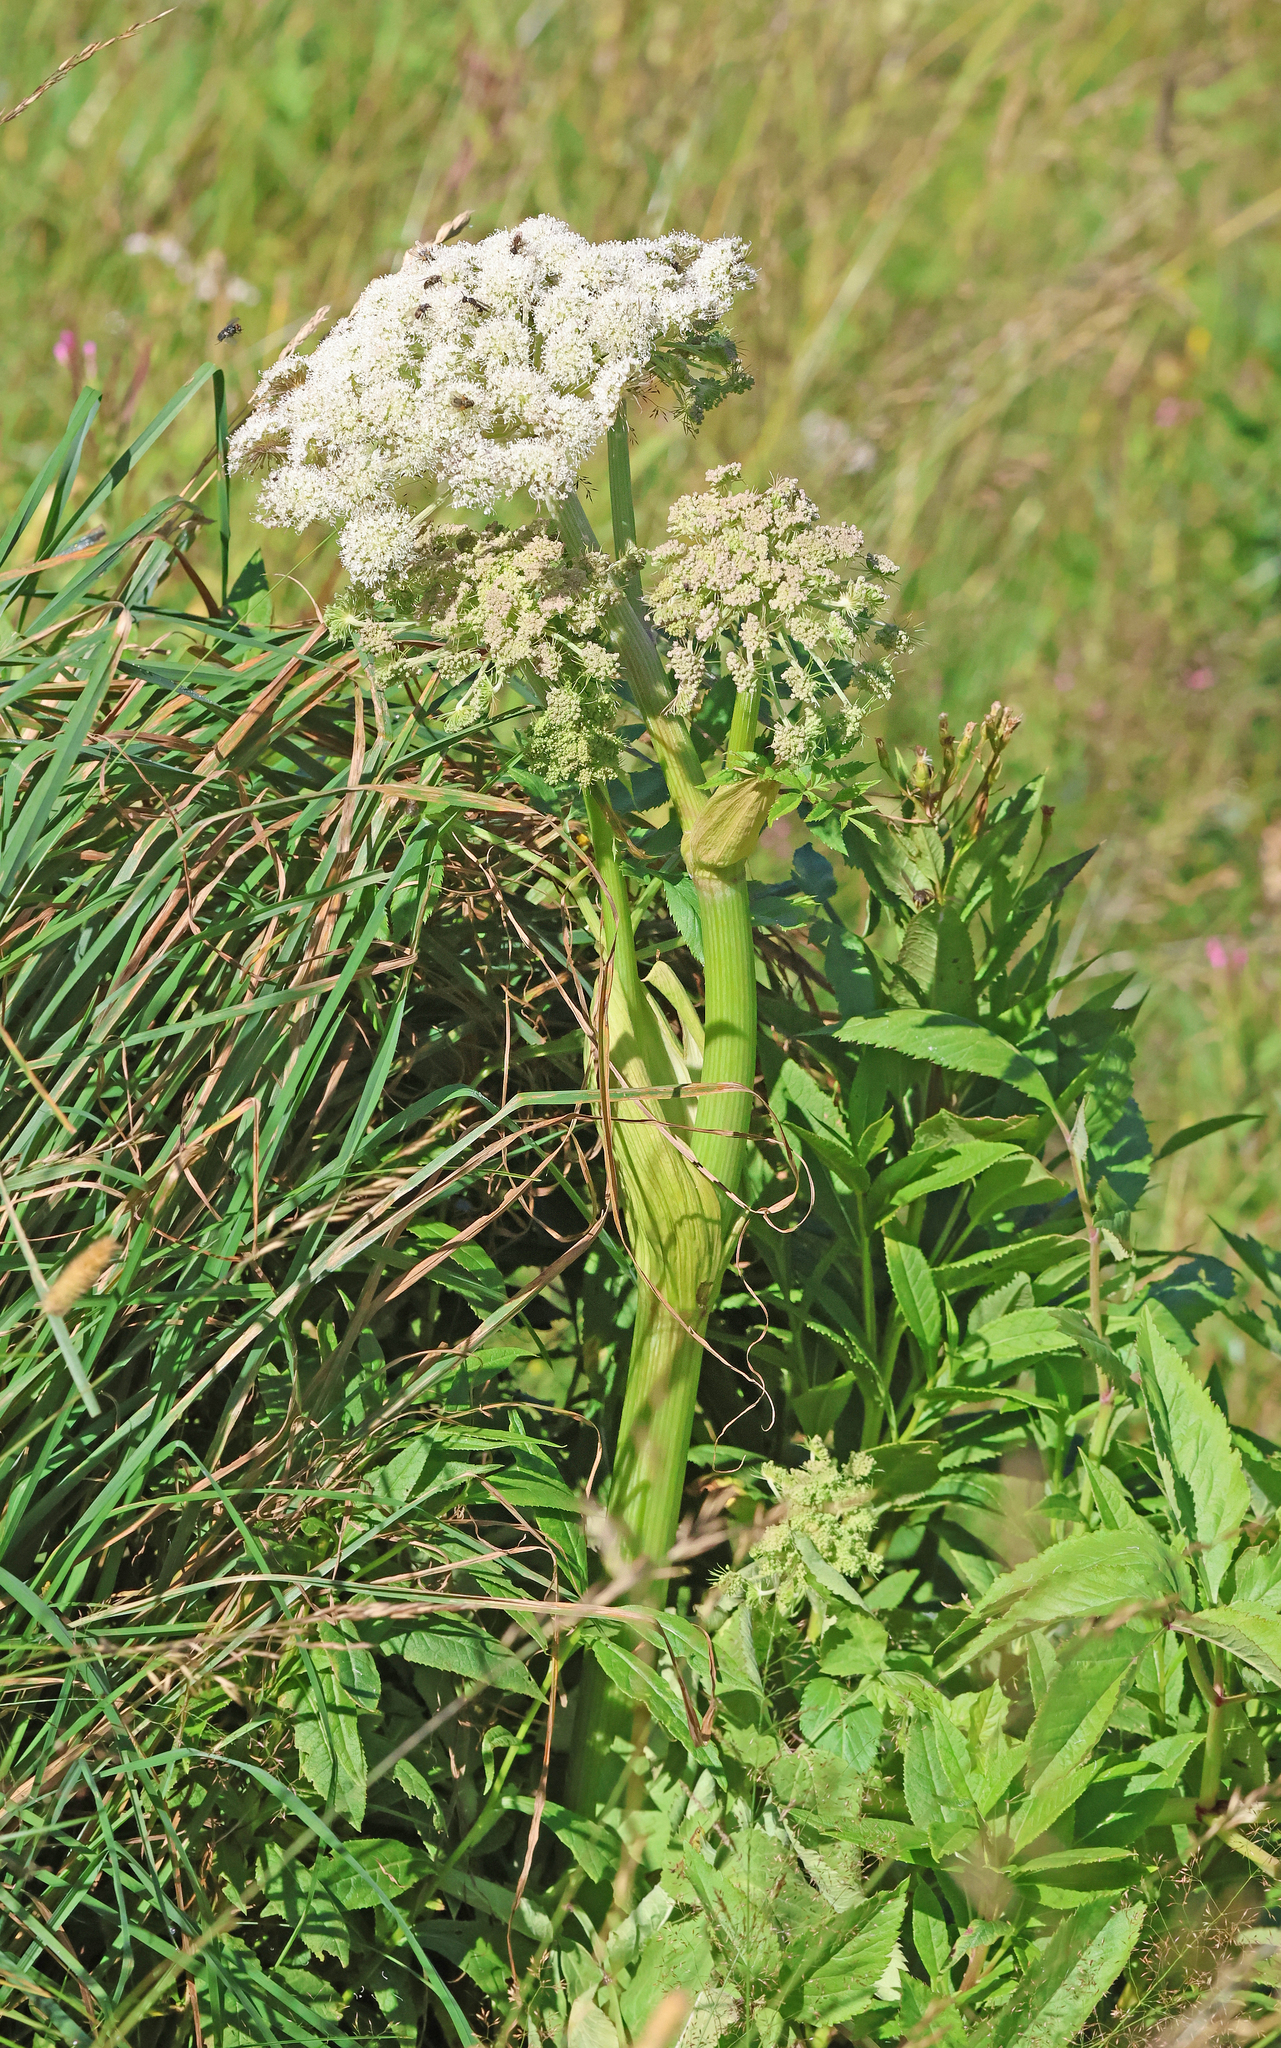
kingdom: Plantae
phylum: Tracheophyta
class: Magnoliopsida
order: Apiales
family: Apiaceae
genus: Angelica
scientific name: Angelica sylvestris
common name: Wild angelica
